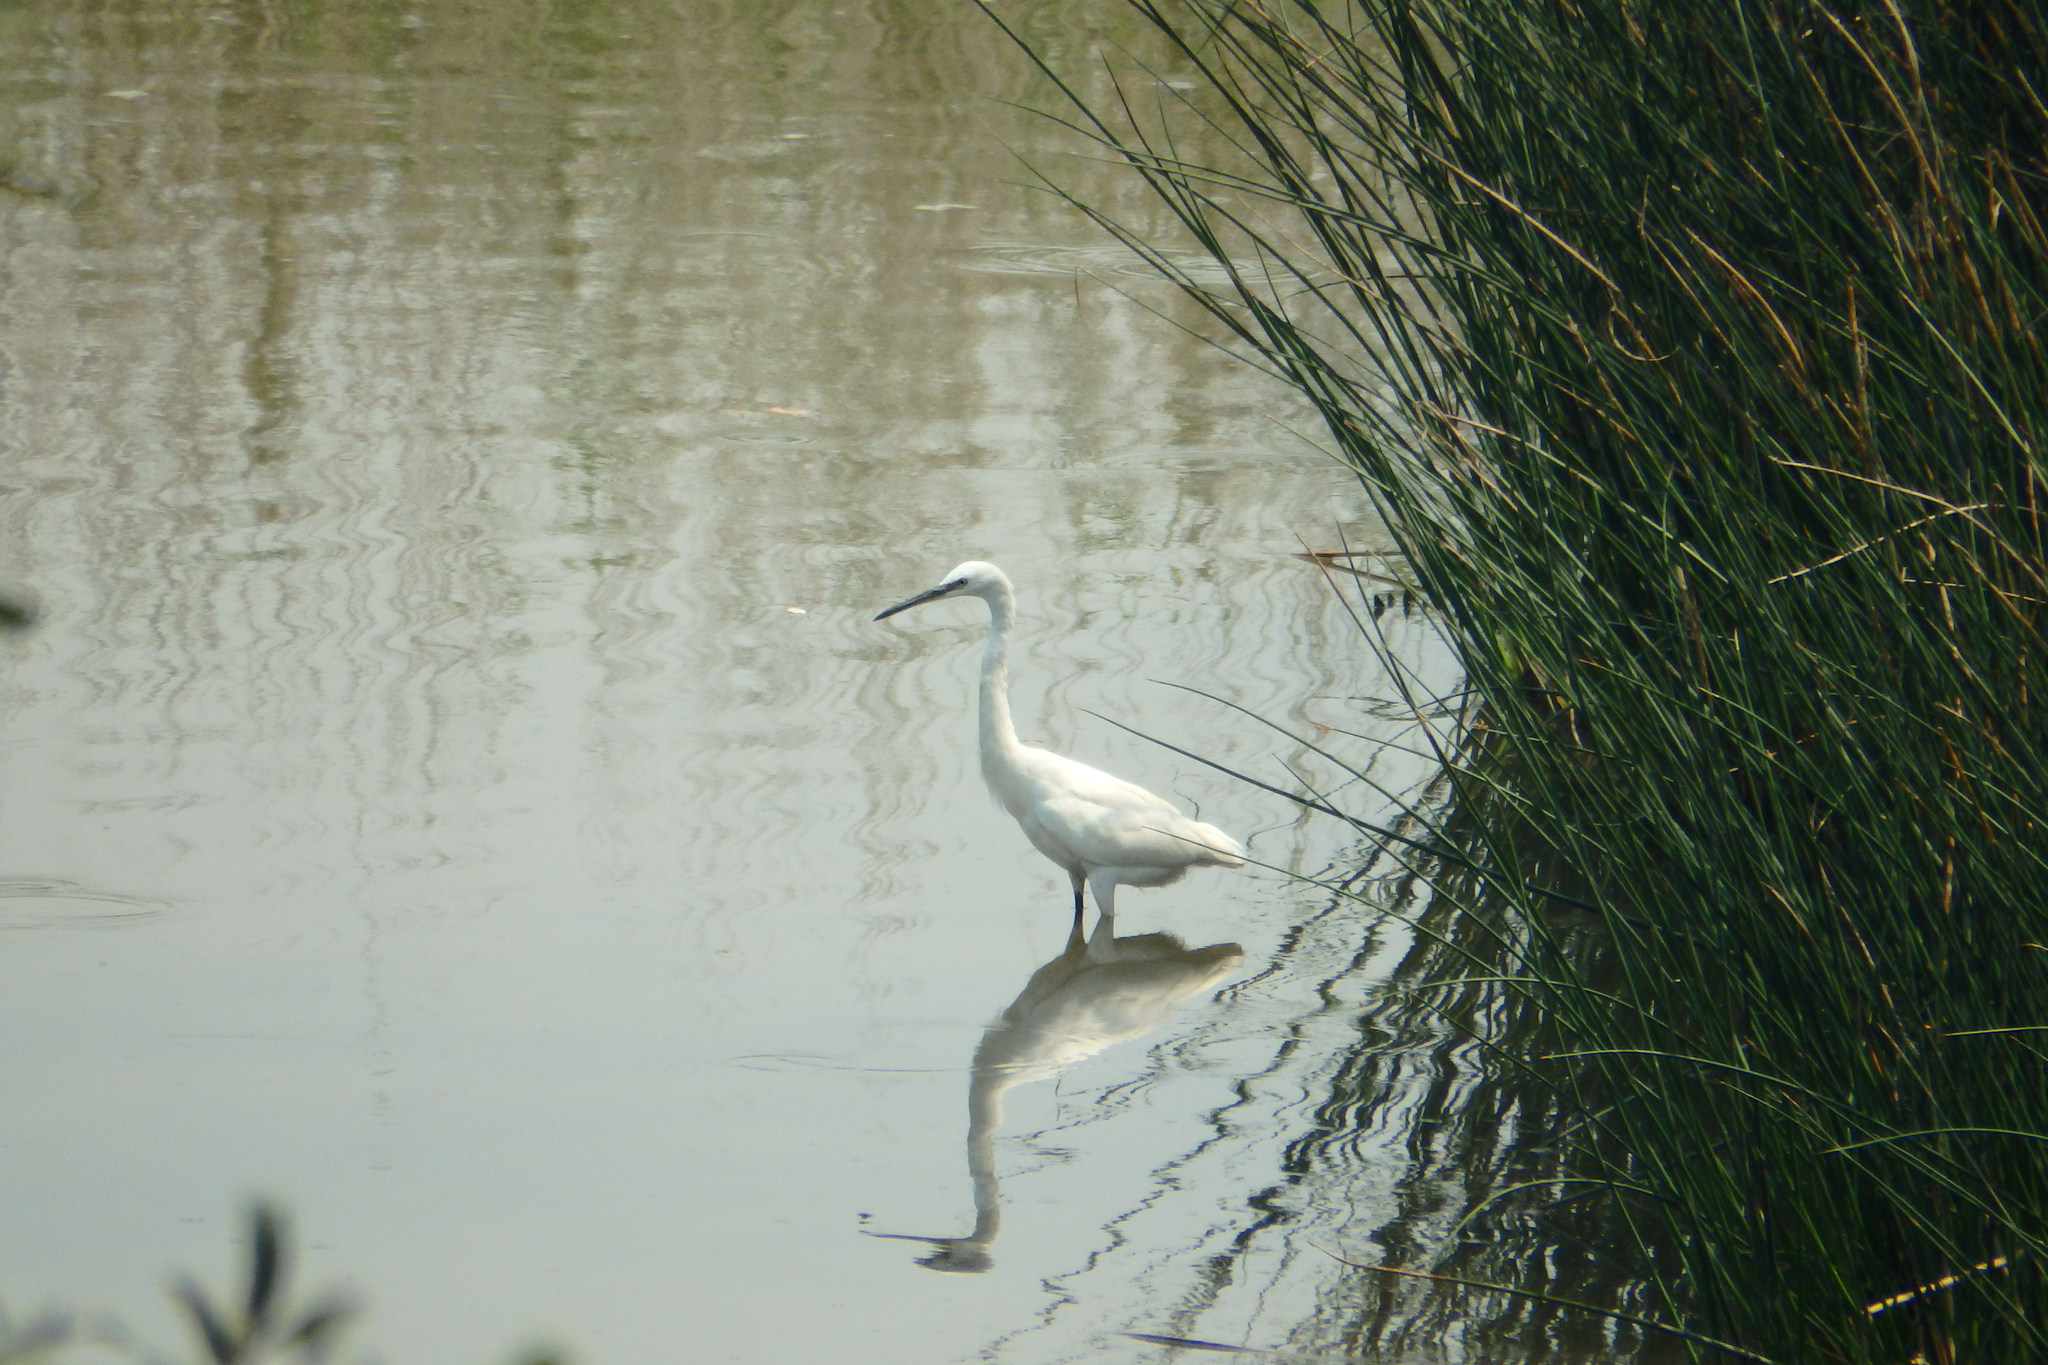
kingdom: Animalia
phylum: Chordata
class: Aves
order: Pelecaniformes
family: Ardeidae
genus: Egretta
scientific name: Egretta garzetta
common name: Little egret
